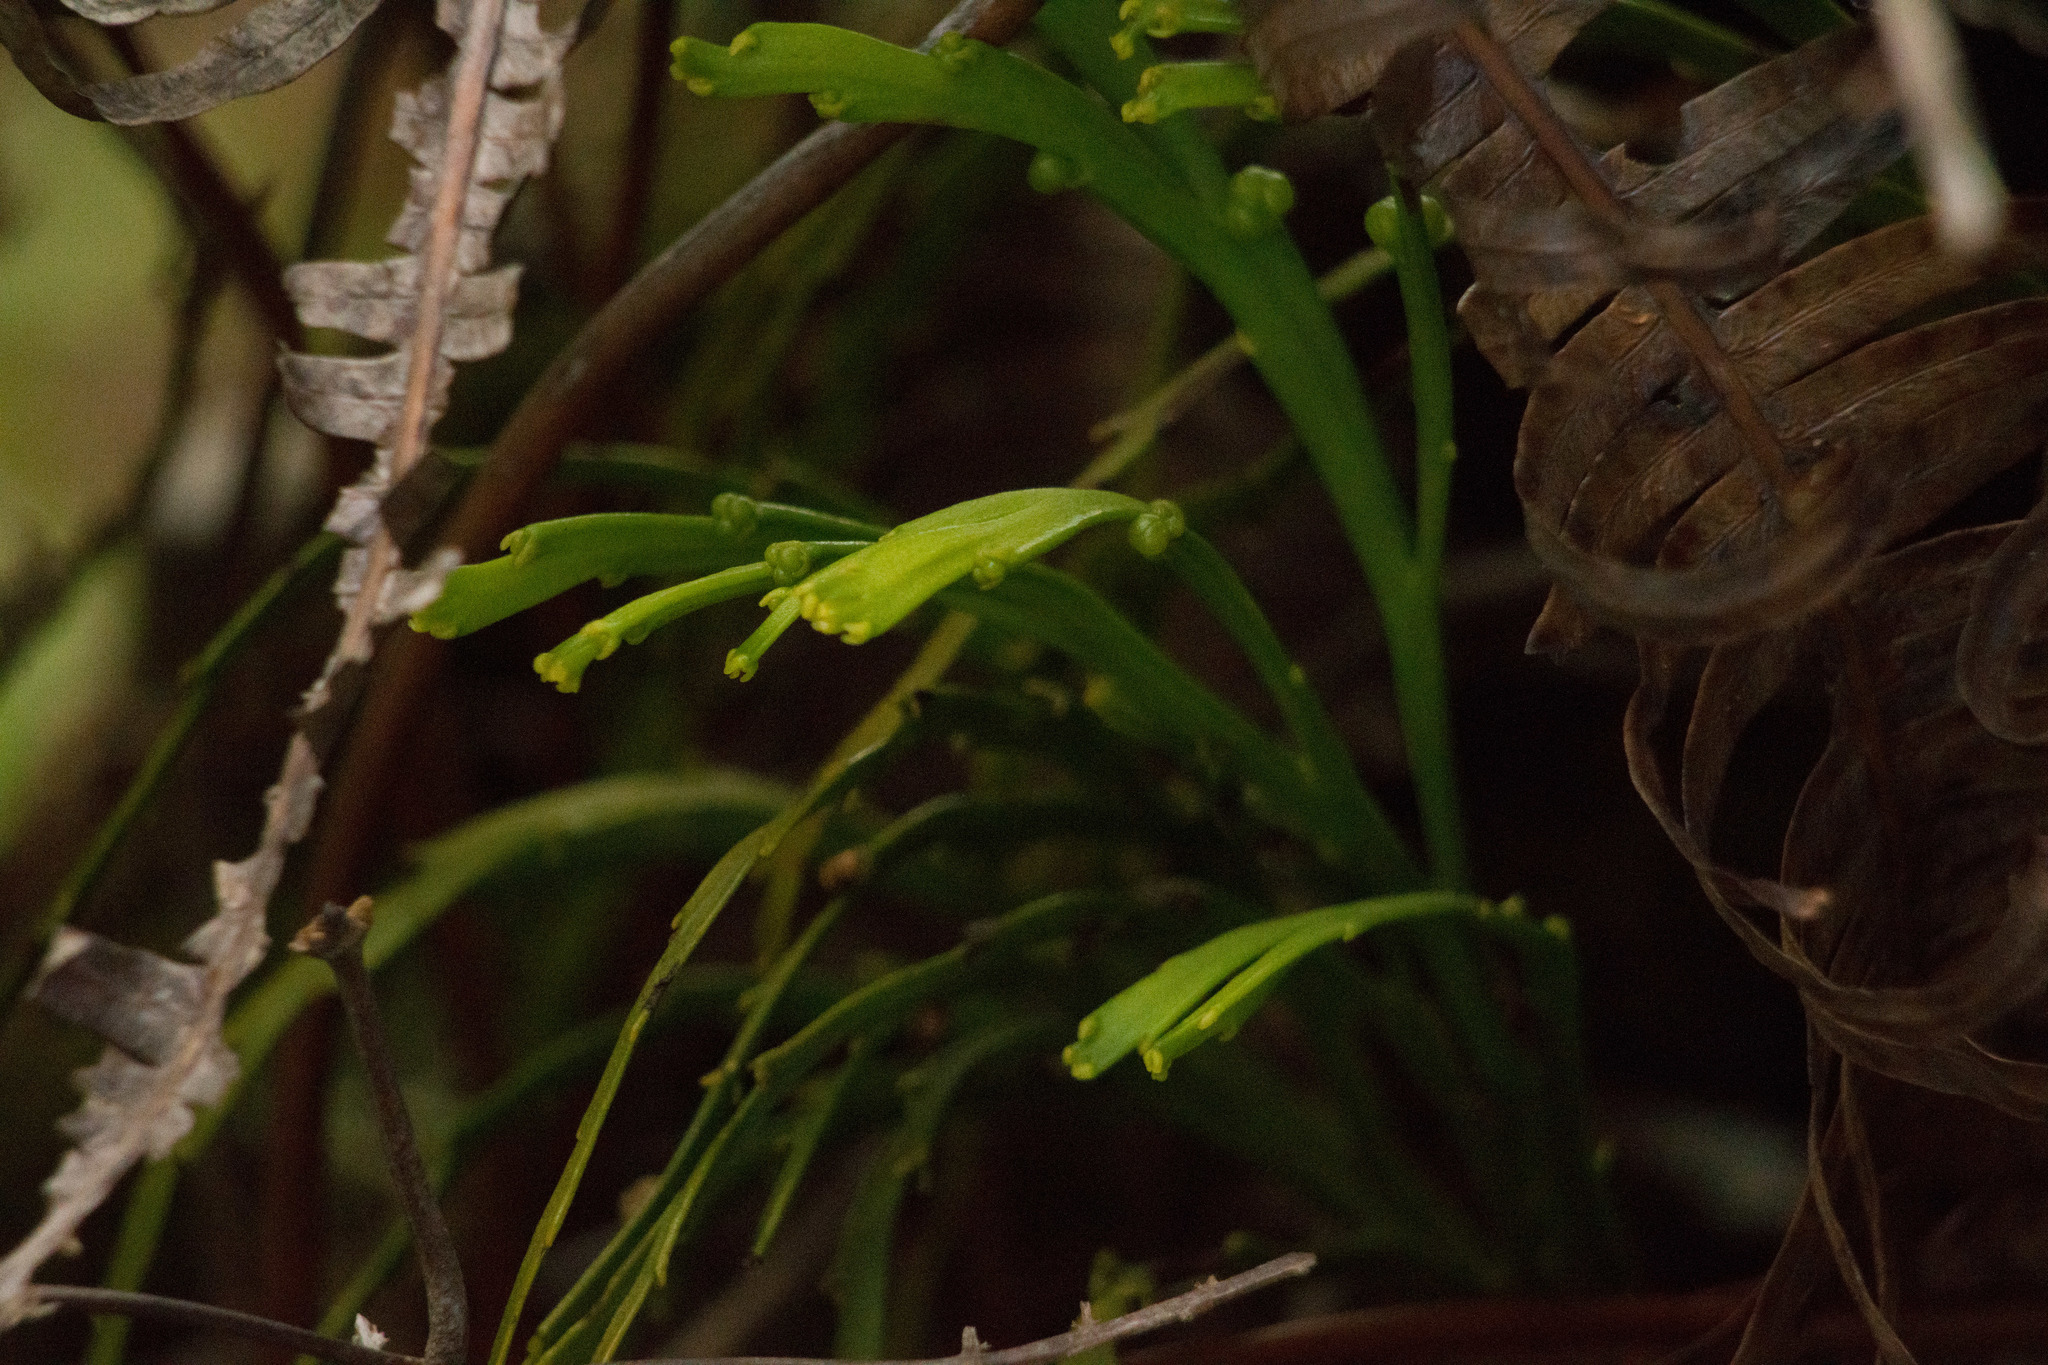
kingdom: Plantae
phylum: Tracheophyta
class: Polypodiopsida
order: Psilotales
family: Psilotaceae
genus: Psilotum
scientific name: Psilotum complanatum
